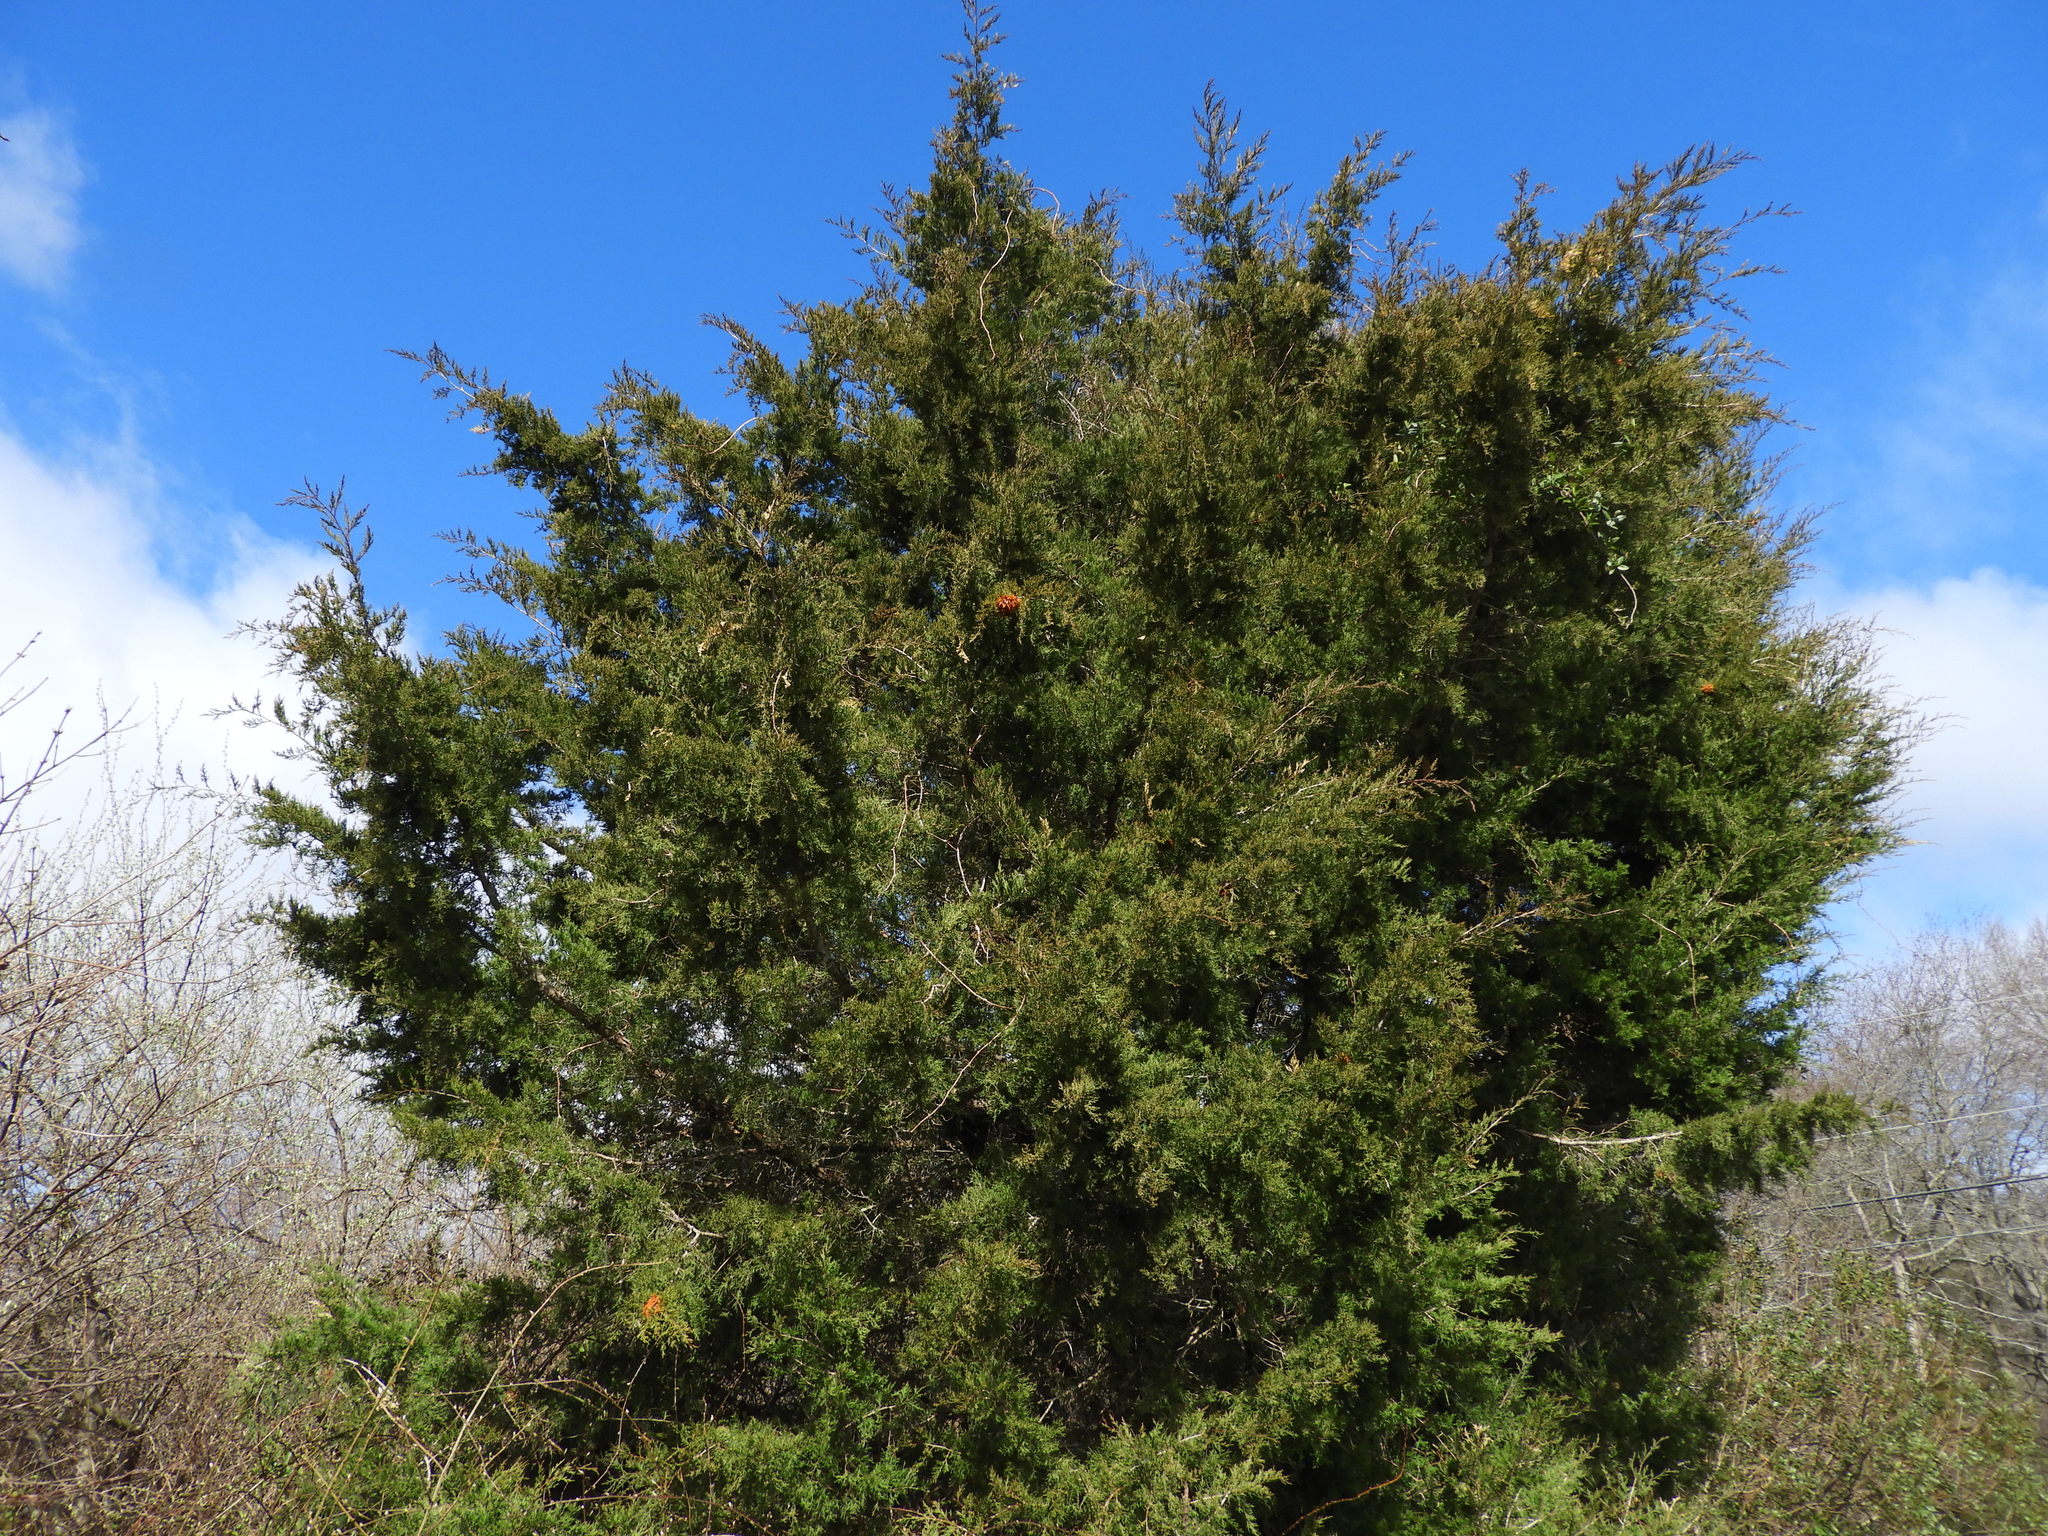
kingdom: Fungi
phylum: Basidiomycota
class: Pucciniomycetes
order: Pucciniales
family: Gymnosporangiaceae
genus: Gymnosporangium
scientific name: Gymnosporangium juniperi-virginianae
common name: Juniper-apple rust
